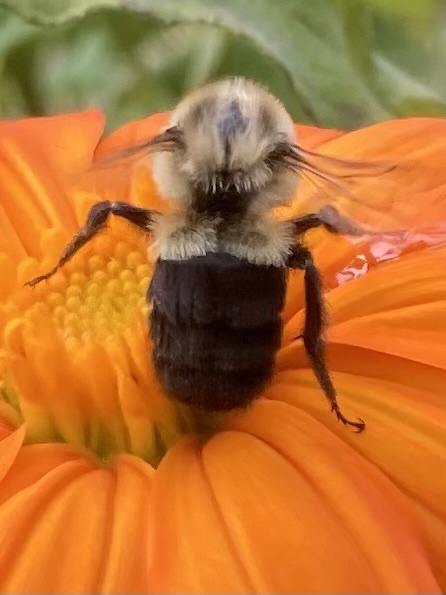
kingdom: Animalia
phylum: Arthropoda
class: Insecta
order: Hymenoptera
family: Apidae
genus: Bombus
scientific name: Bombus impatiens
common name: Common eastern bumble bee
